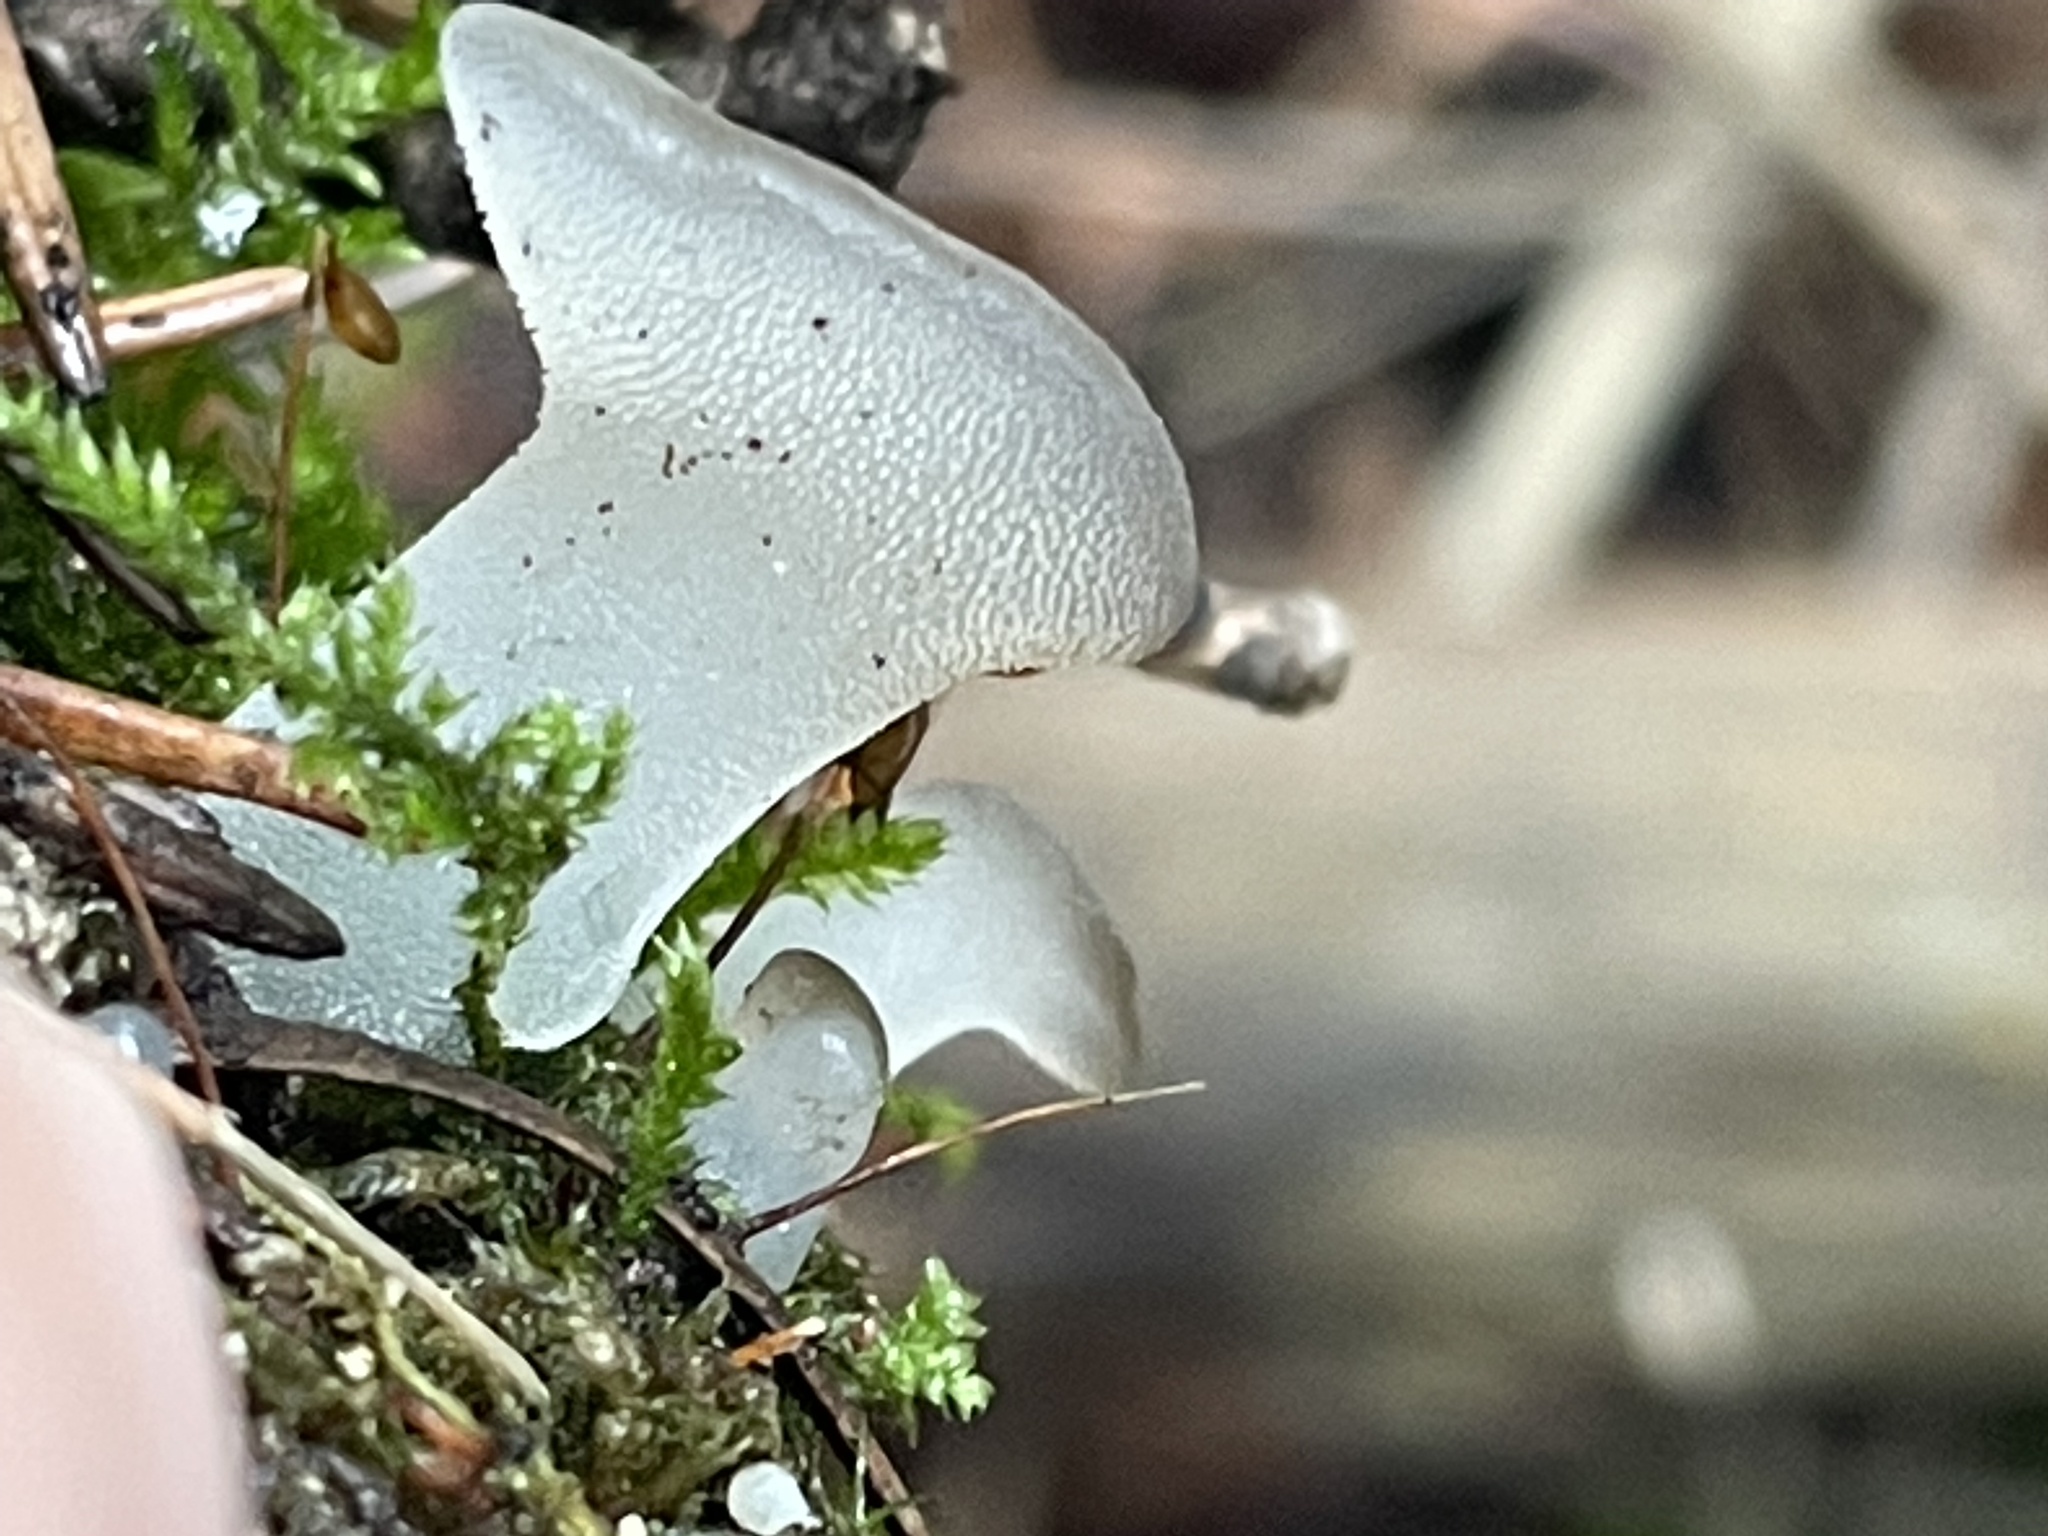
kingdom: Fungi
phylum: Basidiomycota
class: Agaricomycetes
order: Auriculariales
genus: Pseudohydnum
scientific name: Pseudohydnum gelatinosum
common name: Jelly tongue
